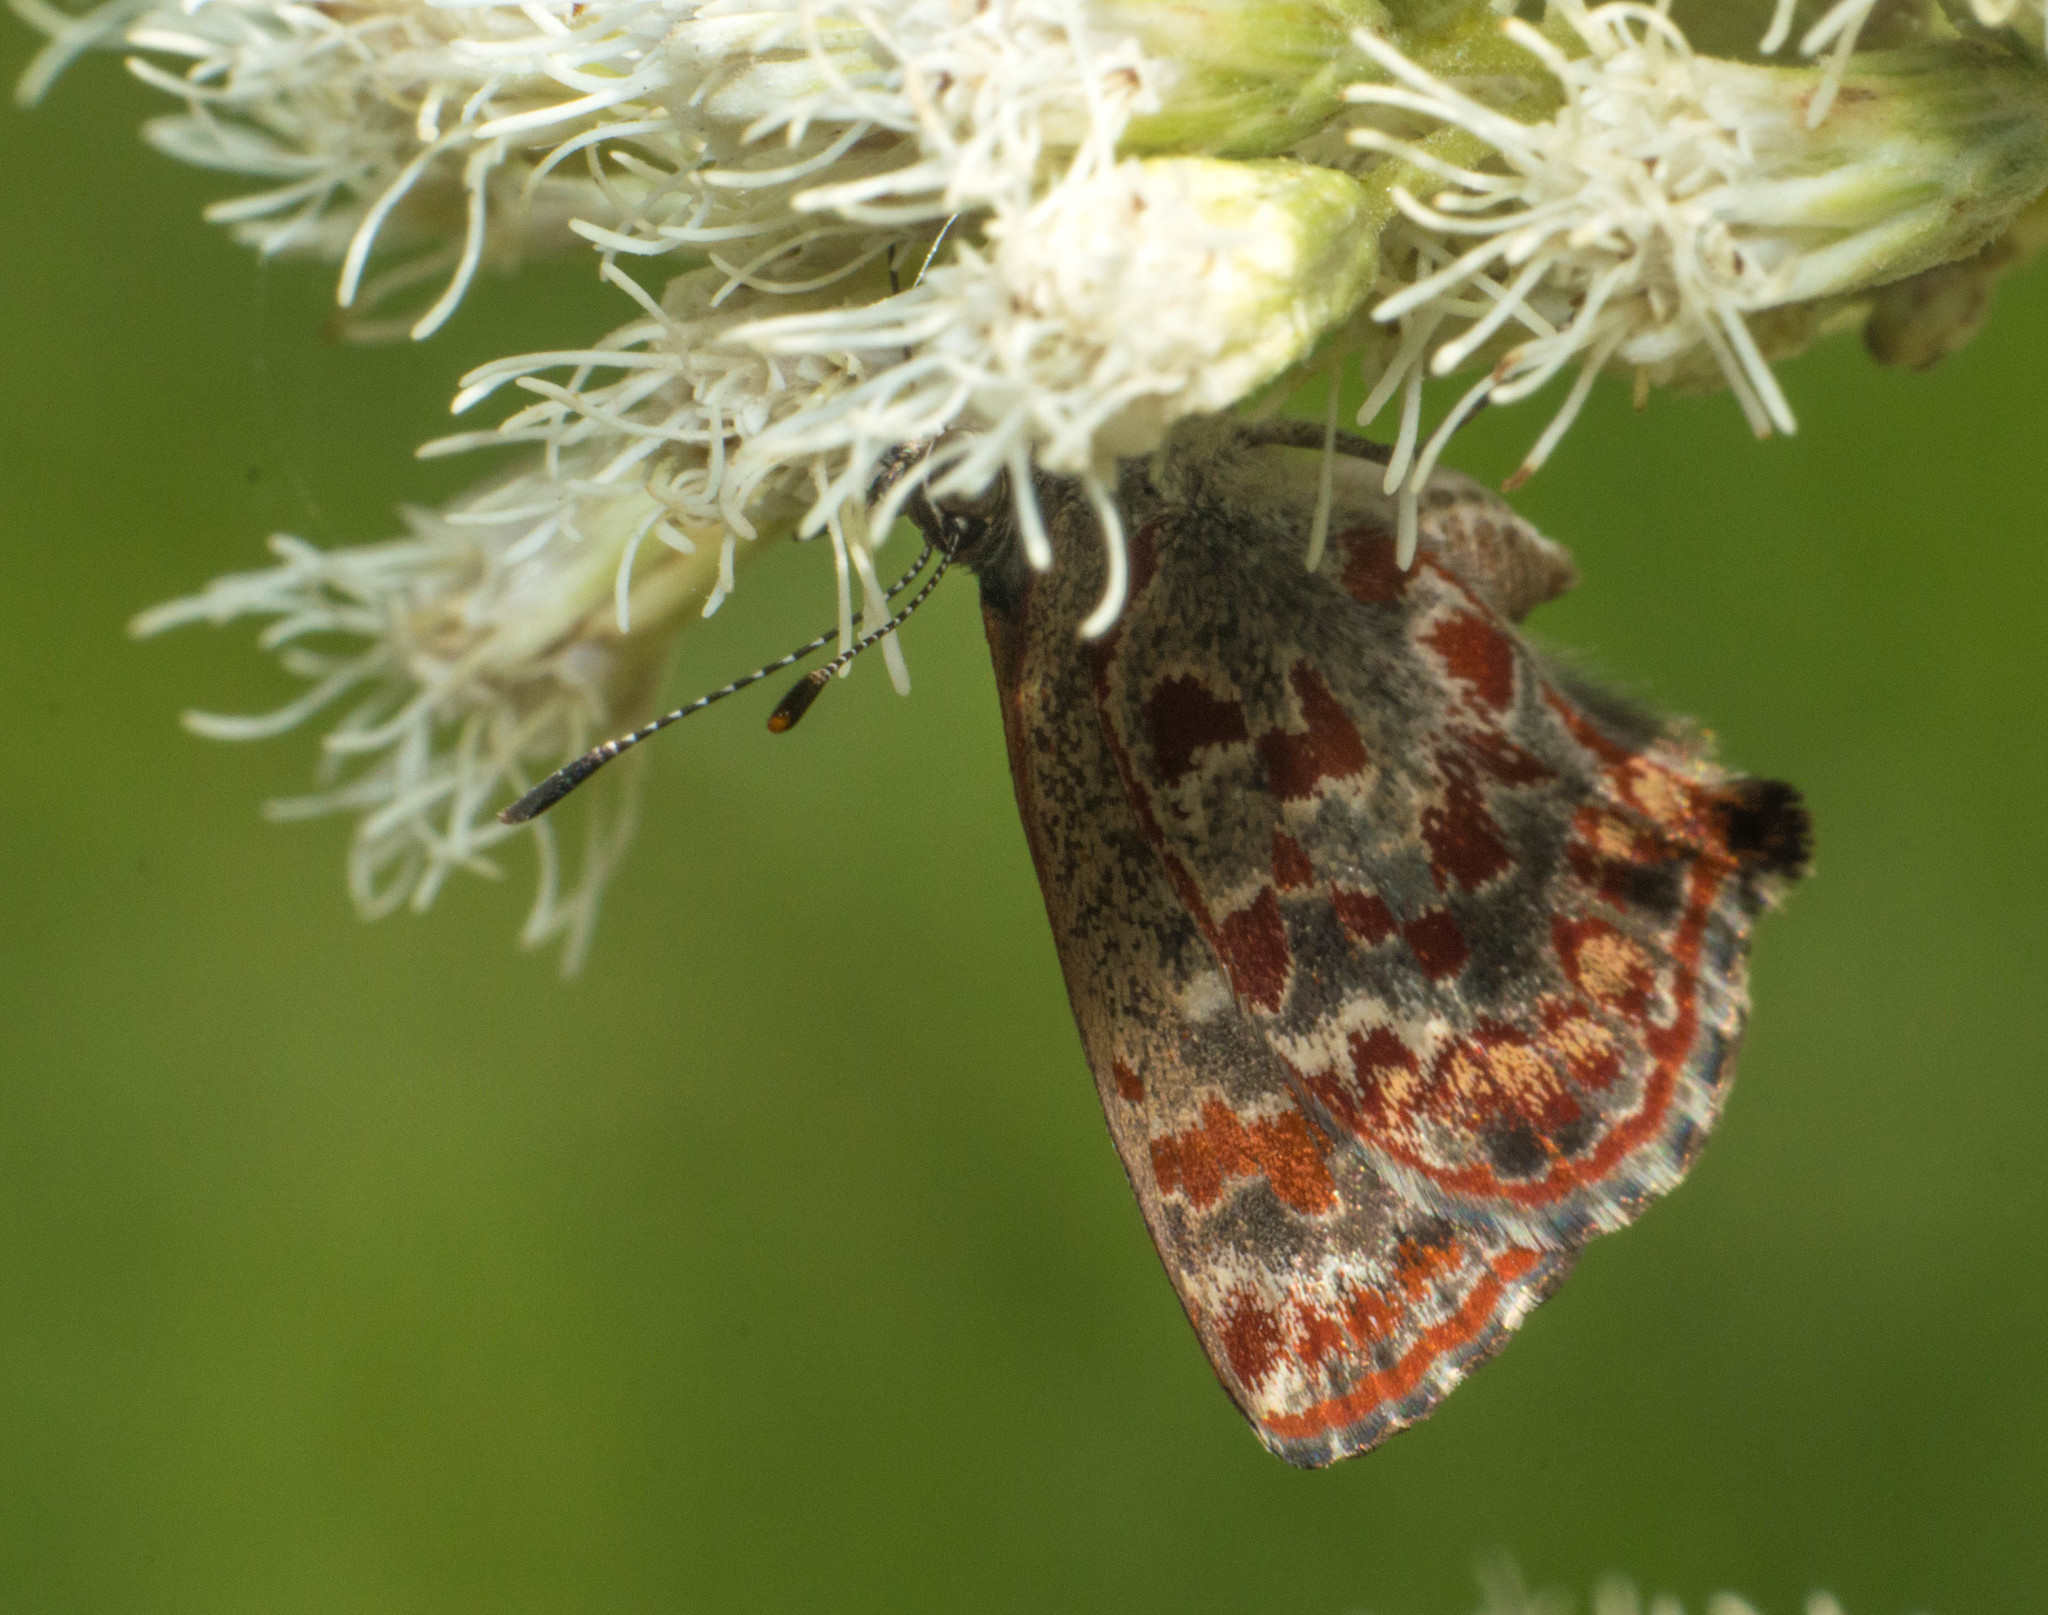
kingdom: Animalia
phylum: Arthropoda
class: Insecta
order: Lepidoptera
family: Lycaenidae
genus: Ministrymon
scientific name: Ministrymon
